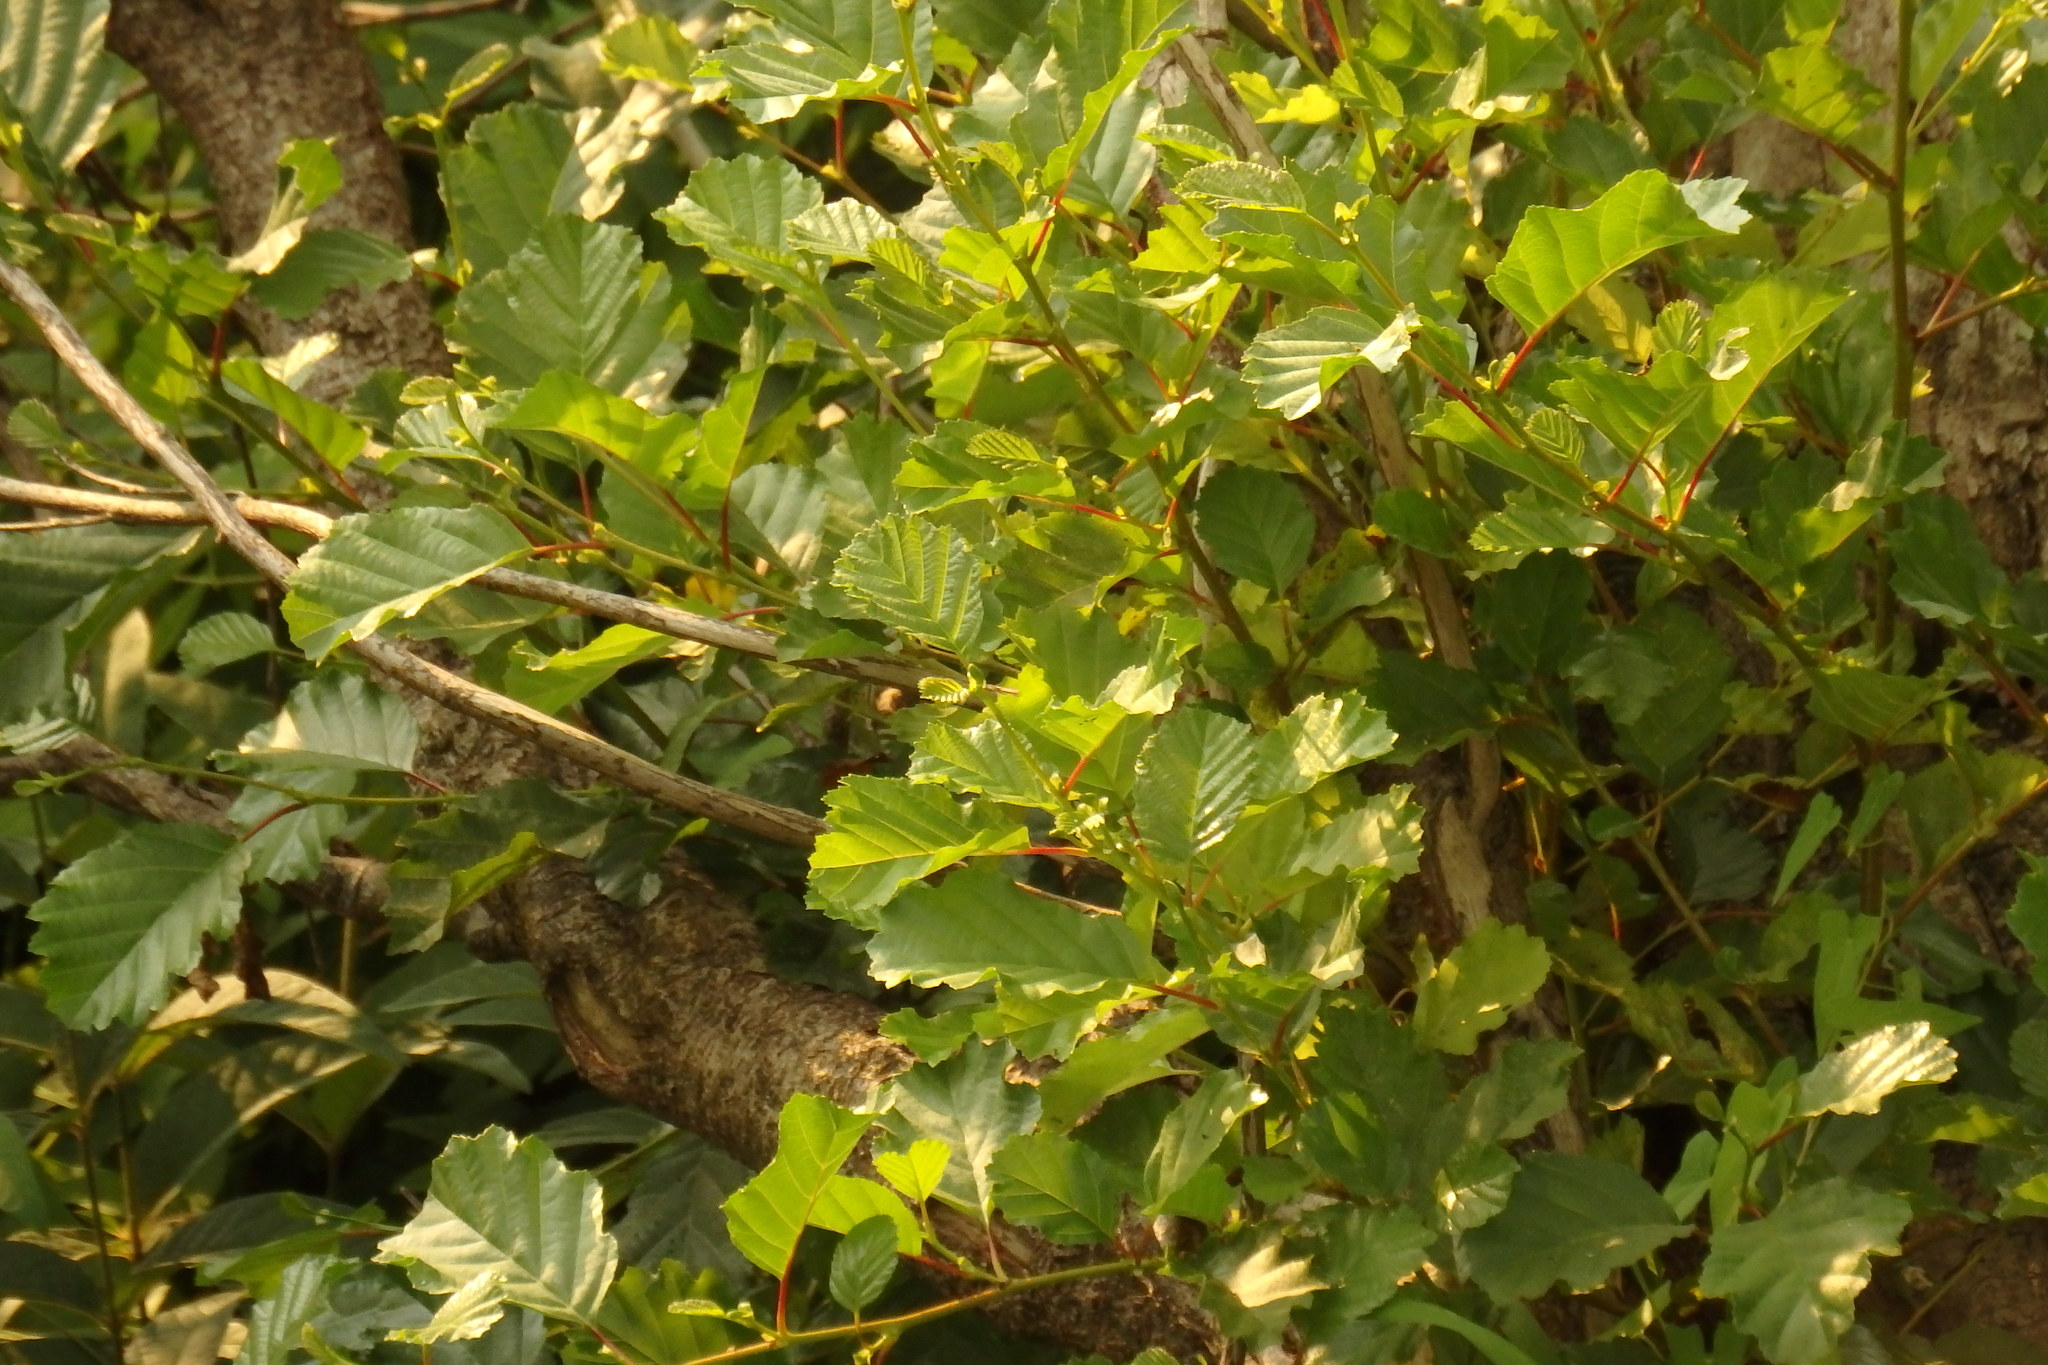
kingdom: Plantae
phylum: Tracheophyta
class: Magnoliopsida
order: Fagales
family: Betulaceae
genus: Alnus
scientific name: Alnus lusitanica
